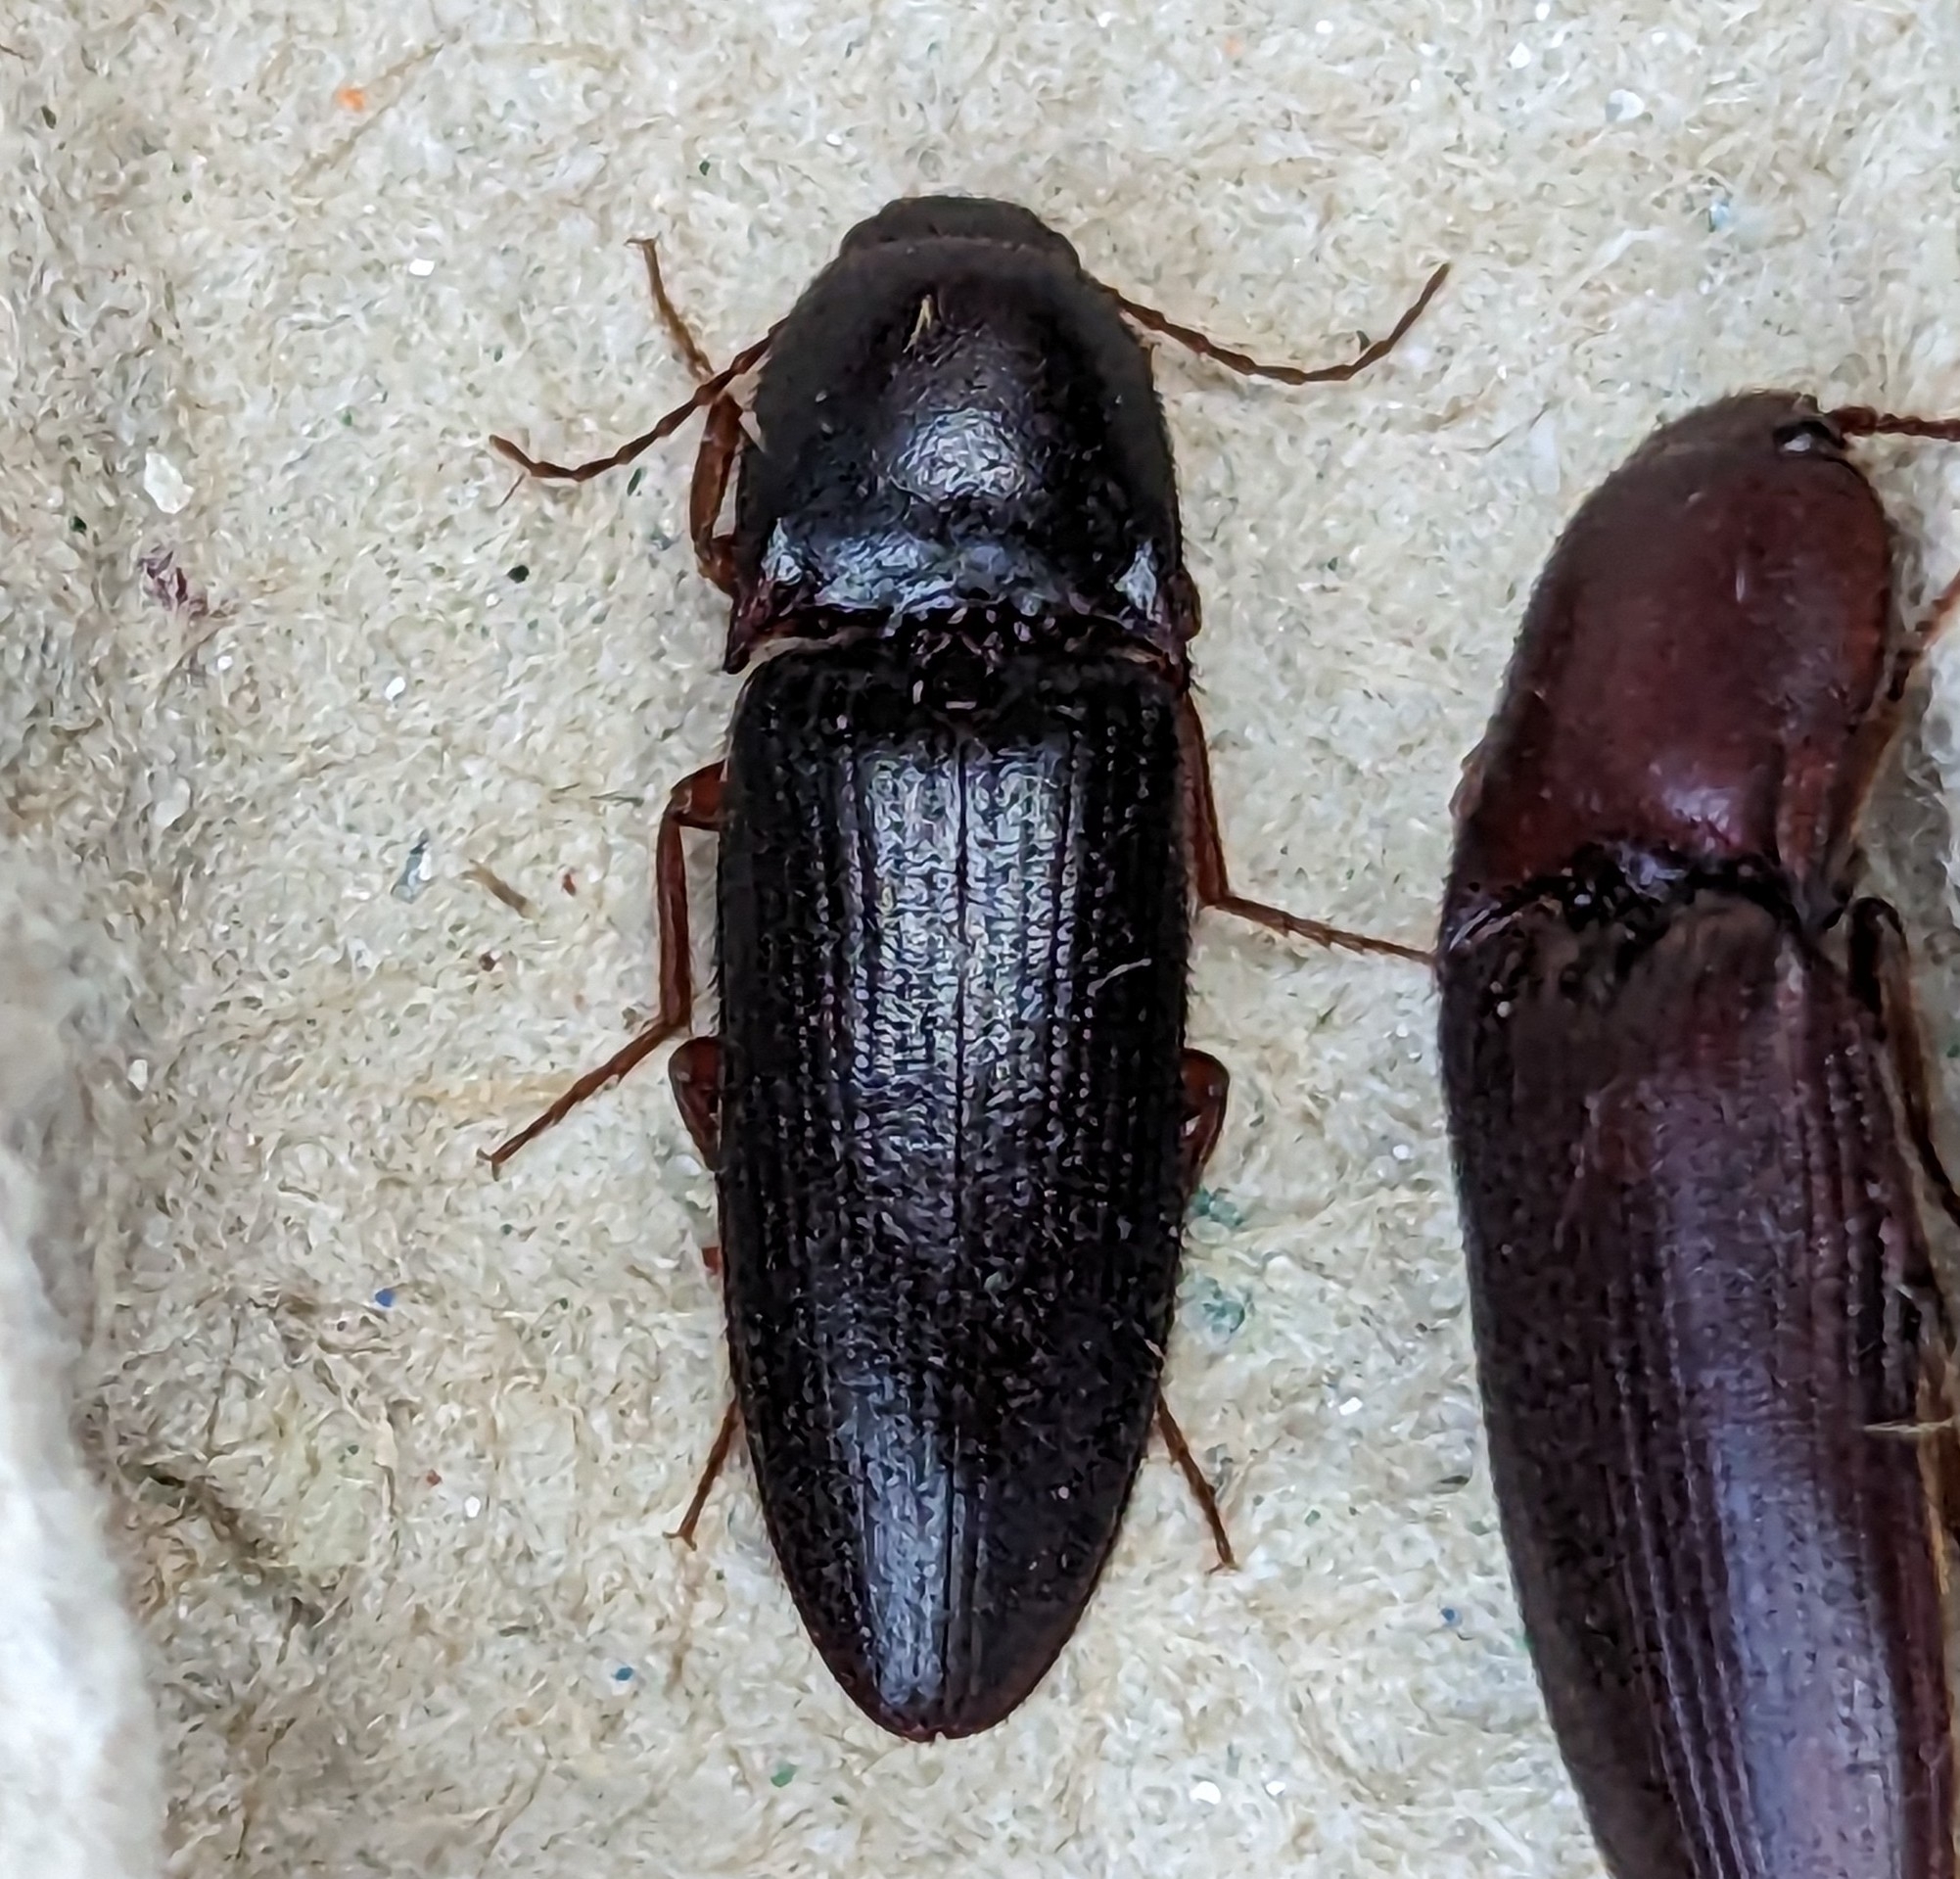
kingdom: Animalia
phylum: Arthropoda
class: Insecta
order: Coleoptera
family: Elateridae
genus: Ampedus
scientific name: Ampedus rhodopus
